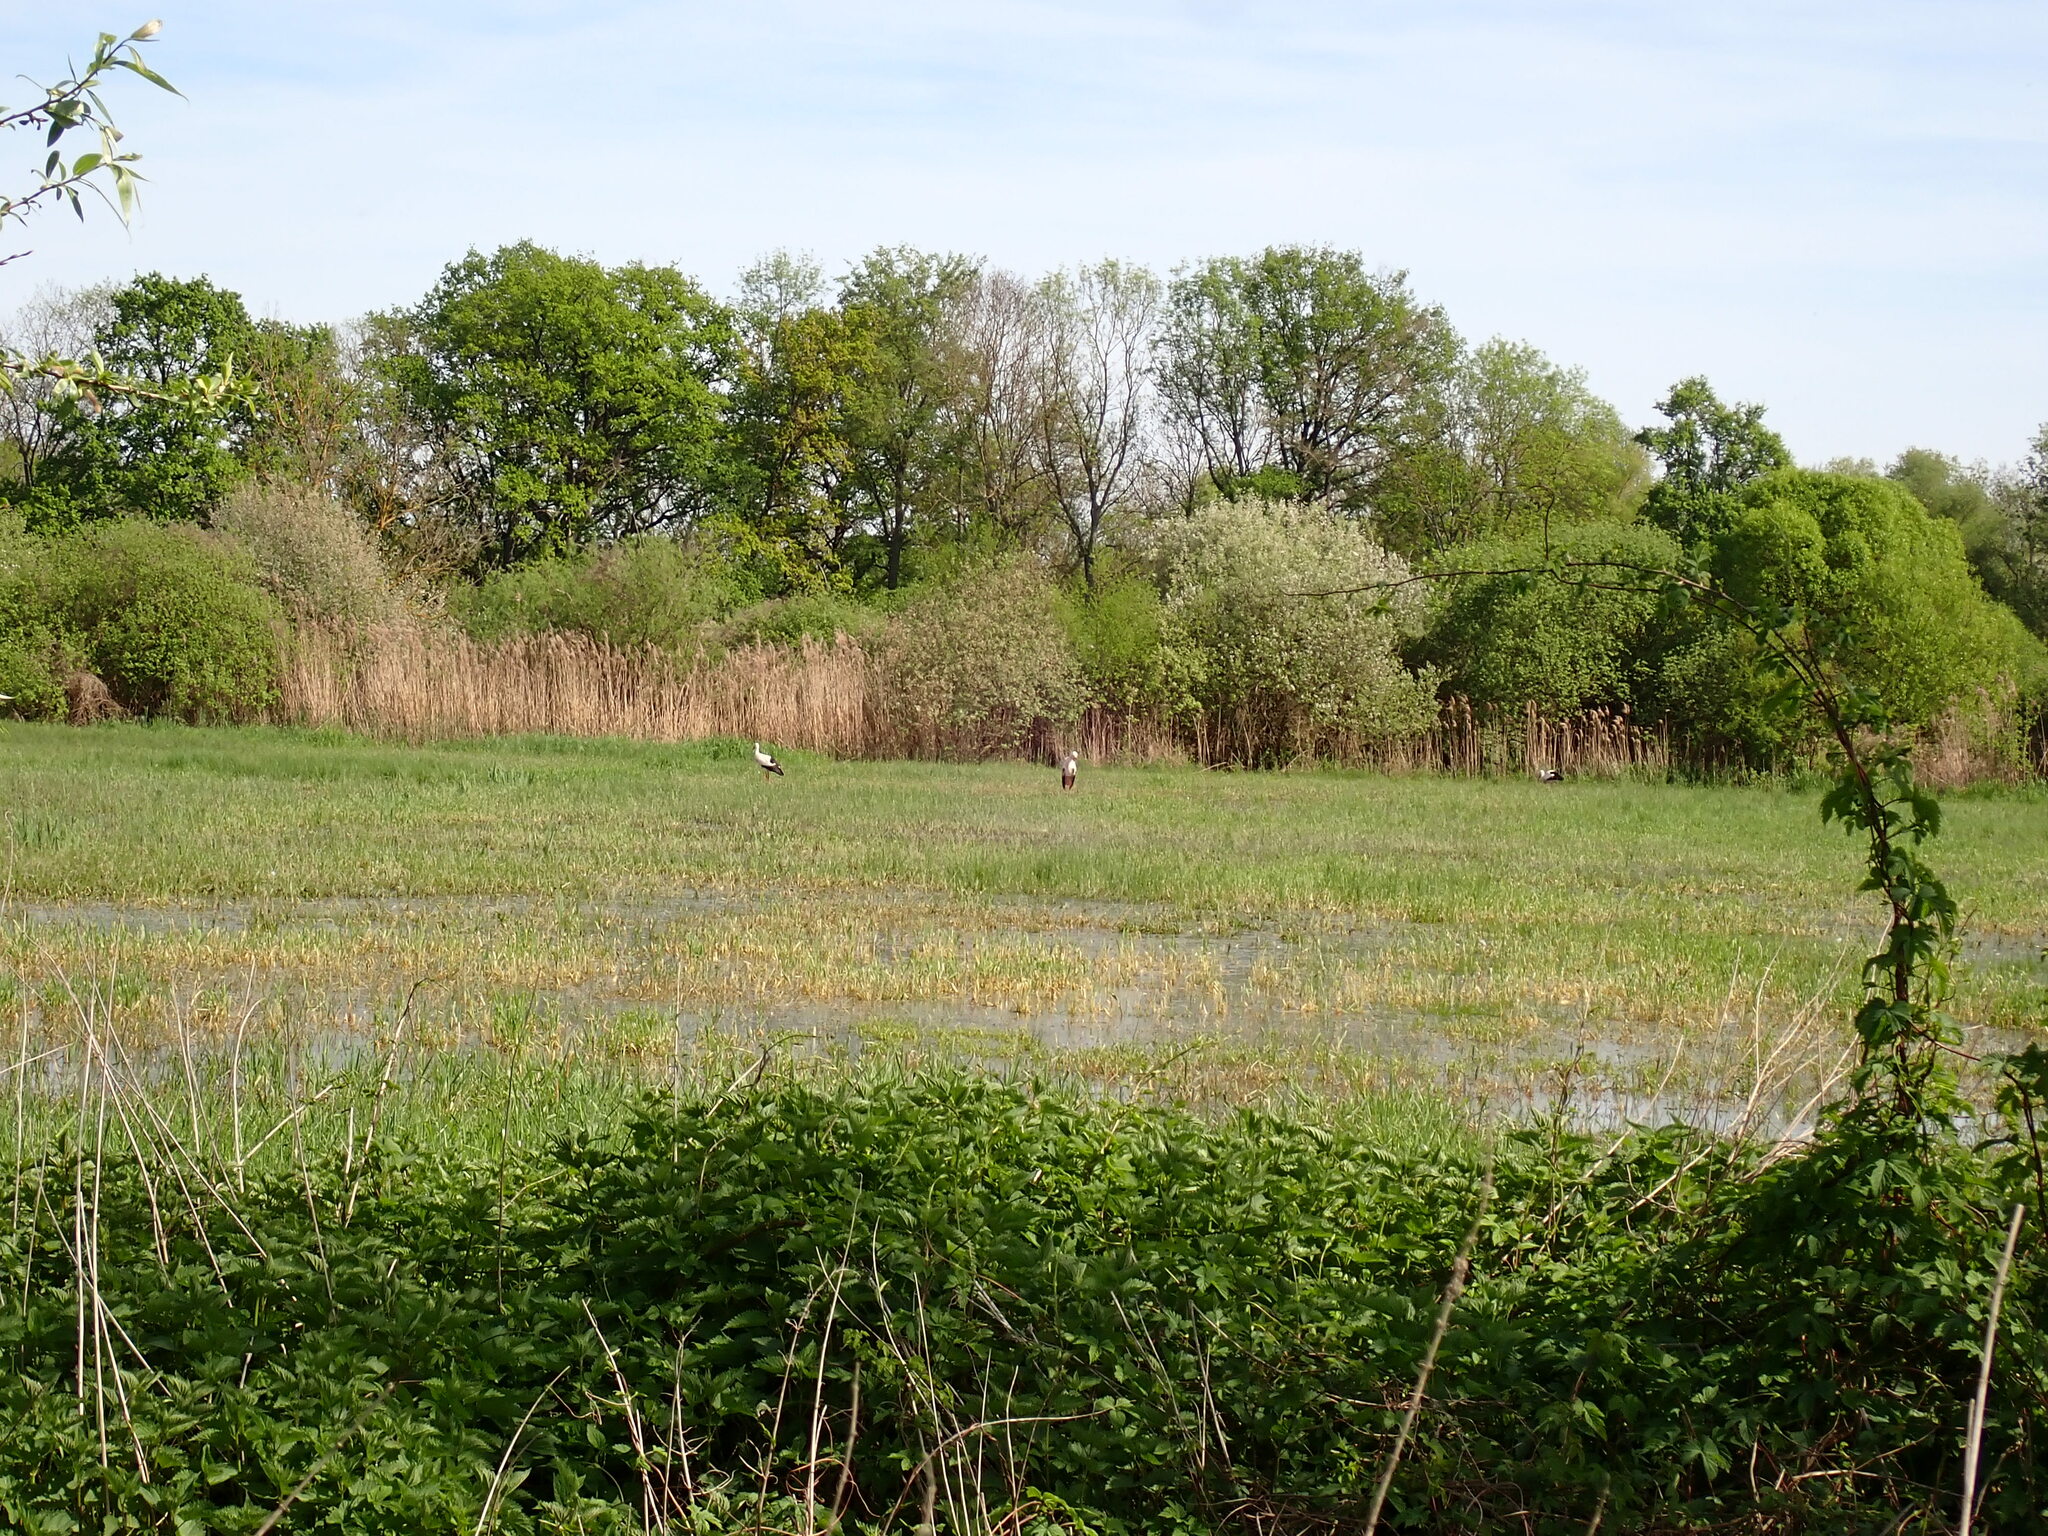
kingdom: Animalia
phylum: Chordata
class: Aves
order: Ciconiiformes
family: Ciconiidae
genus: Ciconia
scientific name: Ciconia ciconia
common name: White stork
